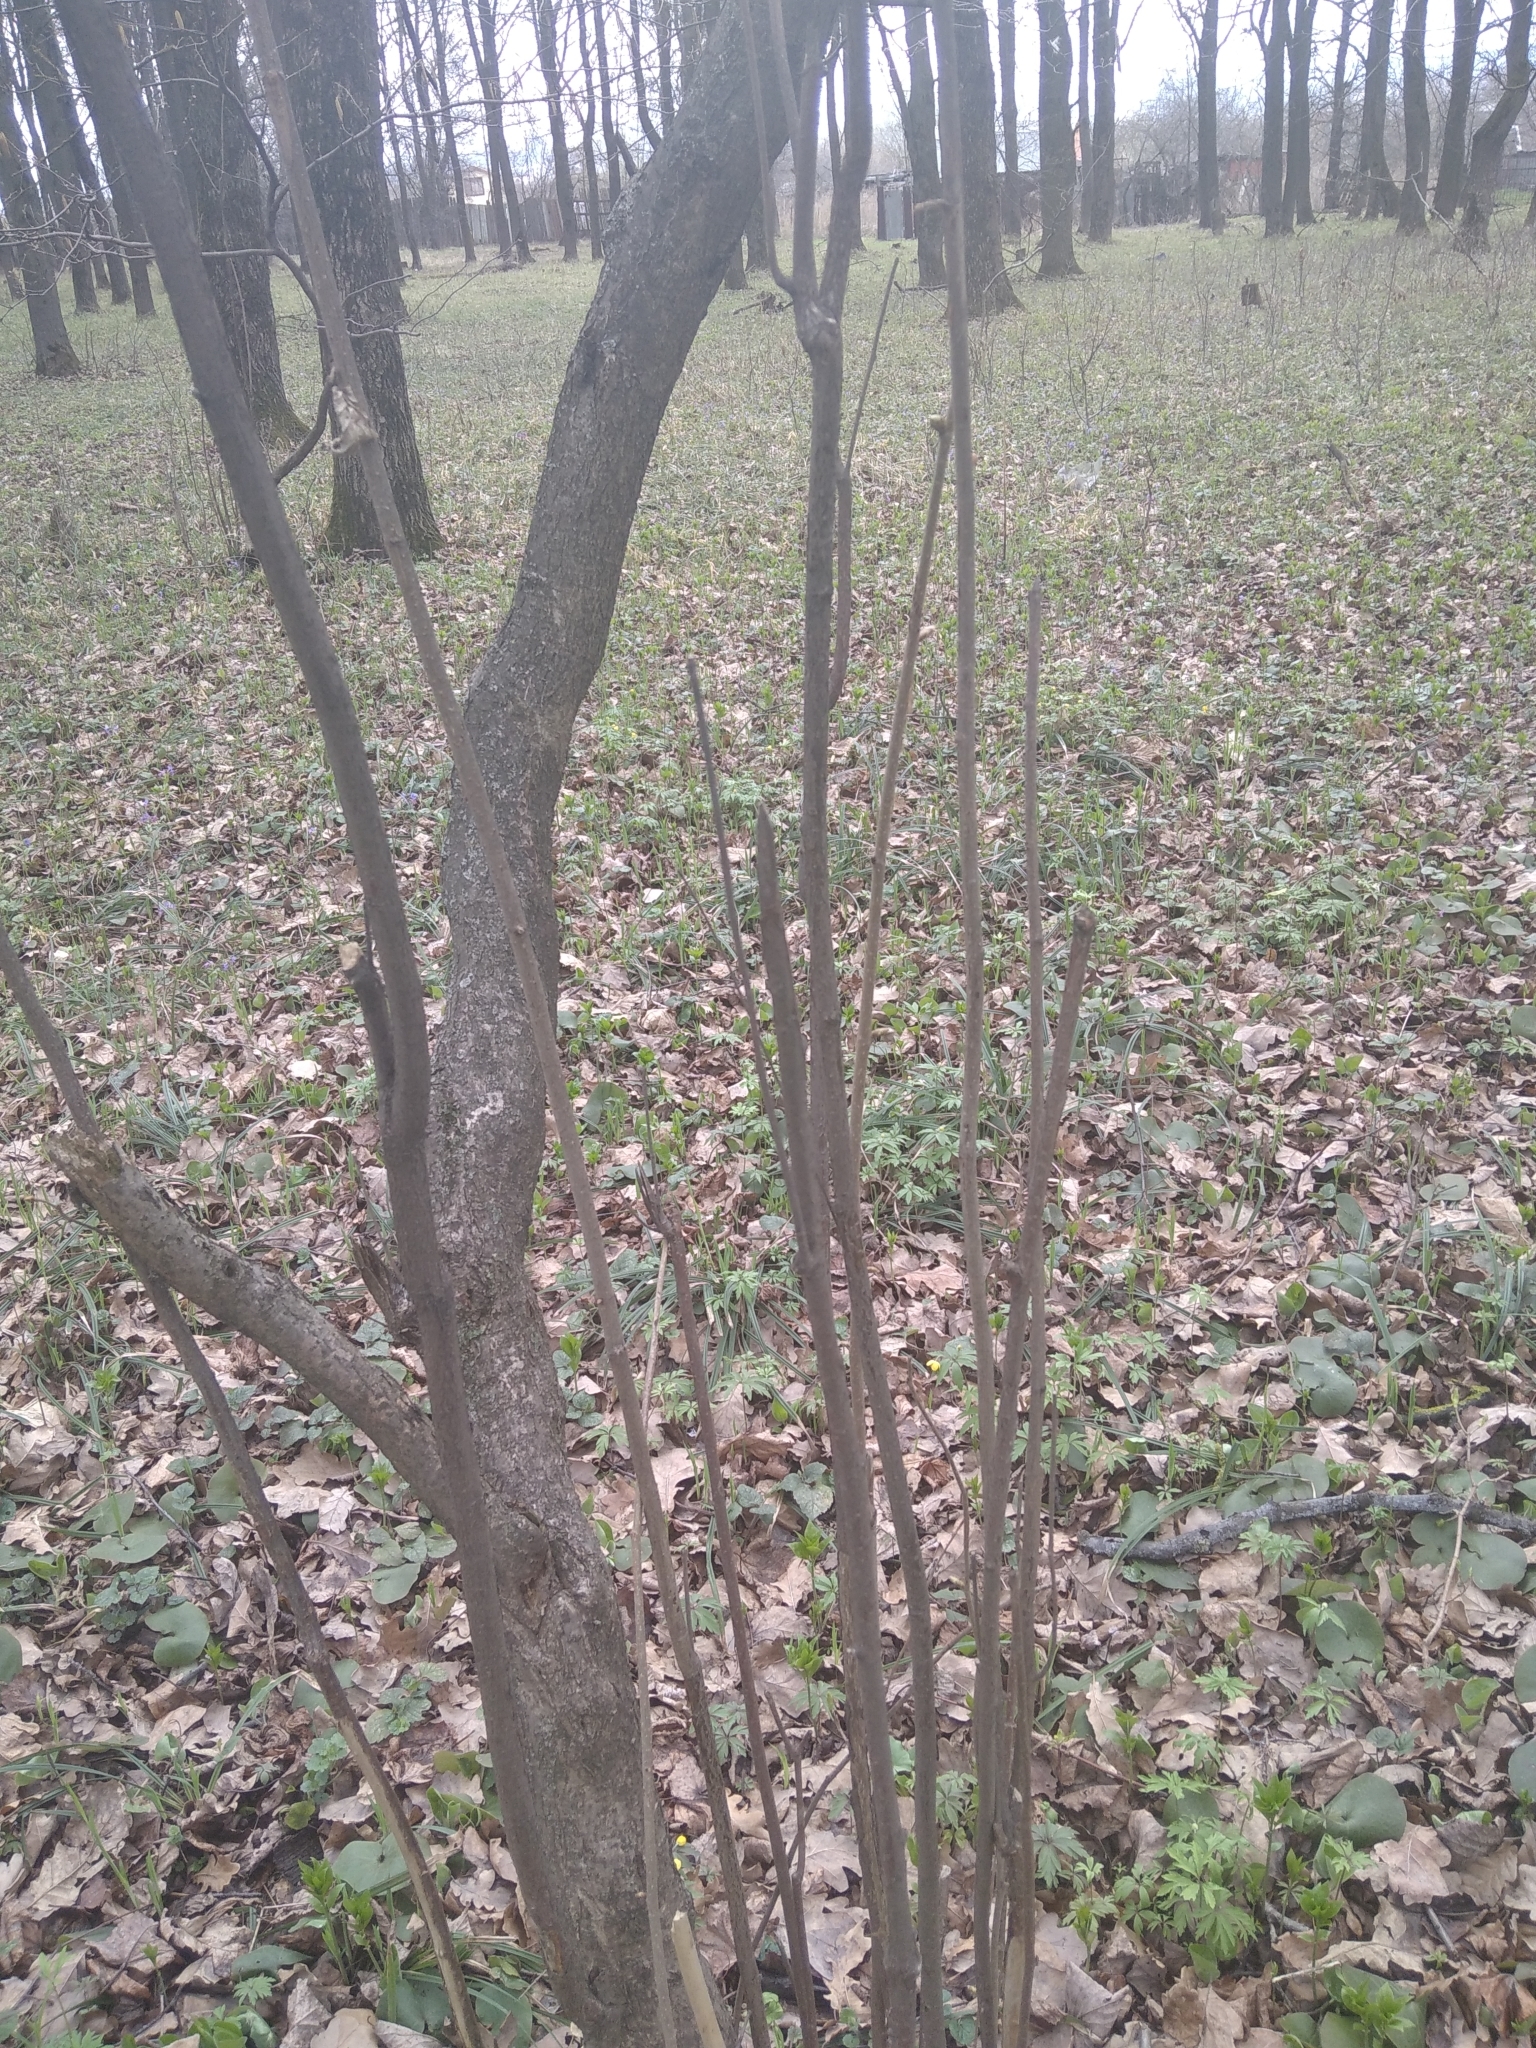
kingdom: Plantae
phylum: Tracheophyta
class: Magnoliopsida
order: Fagales
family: Betulaceae
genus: Corylus
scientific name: Corylus avellana
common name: European hazel
